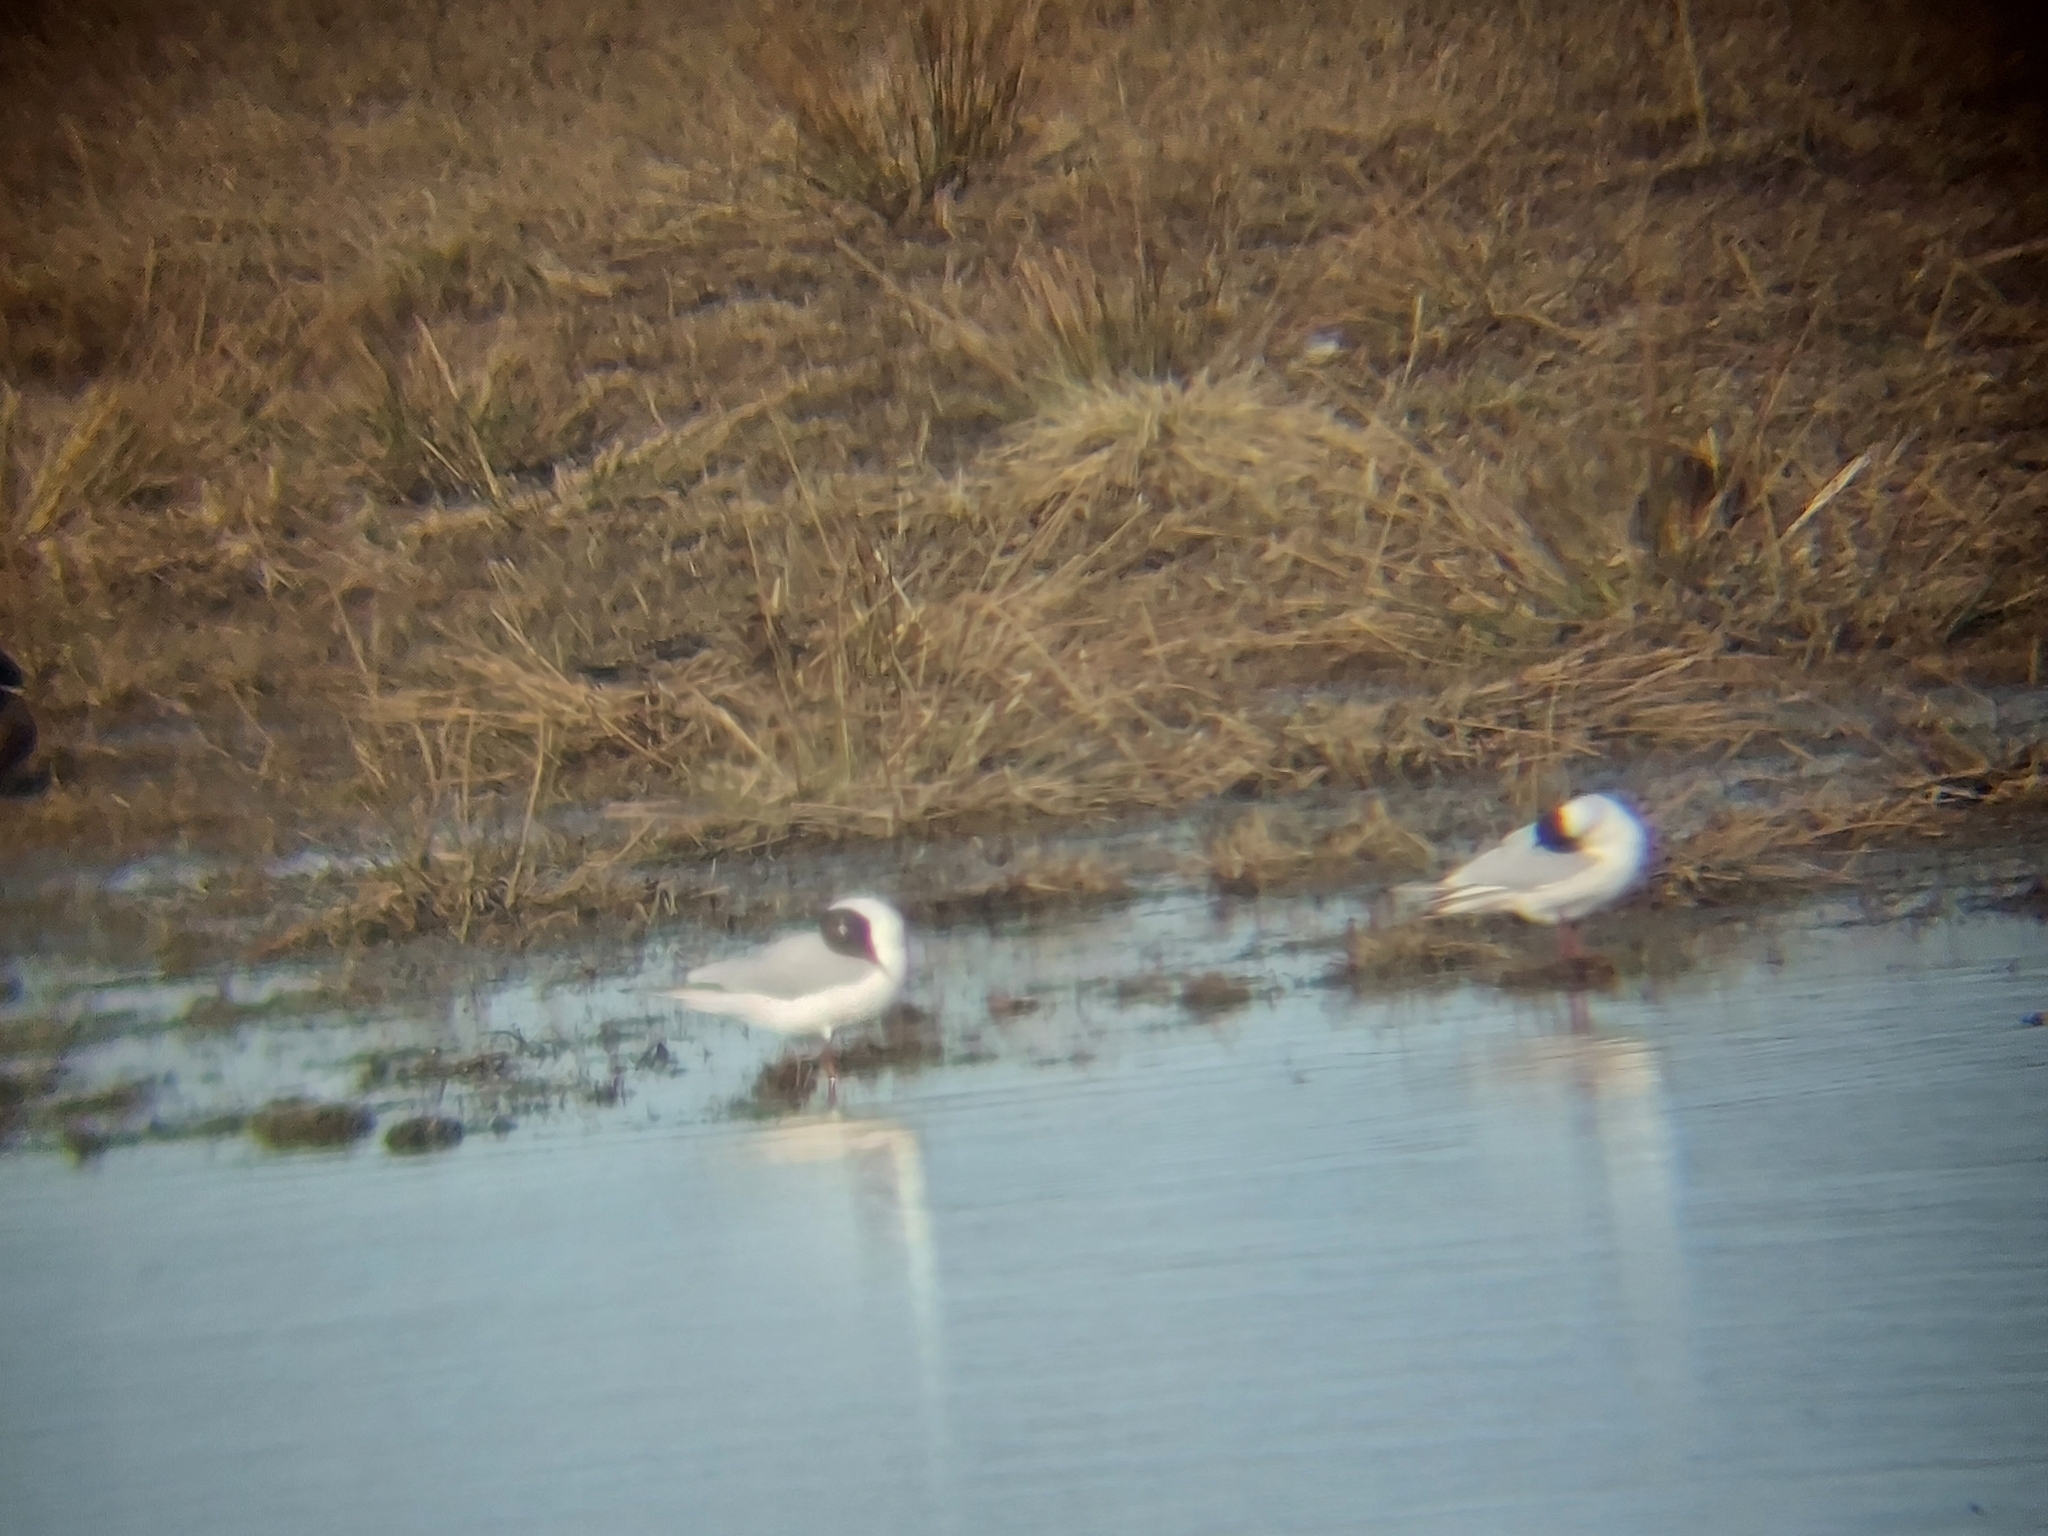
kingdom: Animalia
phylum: Chordata
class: Aves
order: Charadriiformes
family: Laridae
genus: Chroicocephalus
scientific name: Chroicocephalus ridibundus
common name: Black-headed gull
